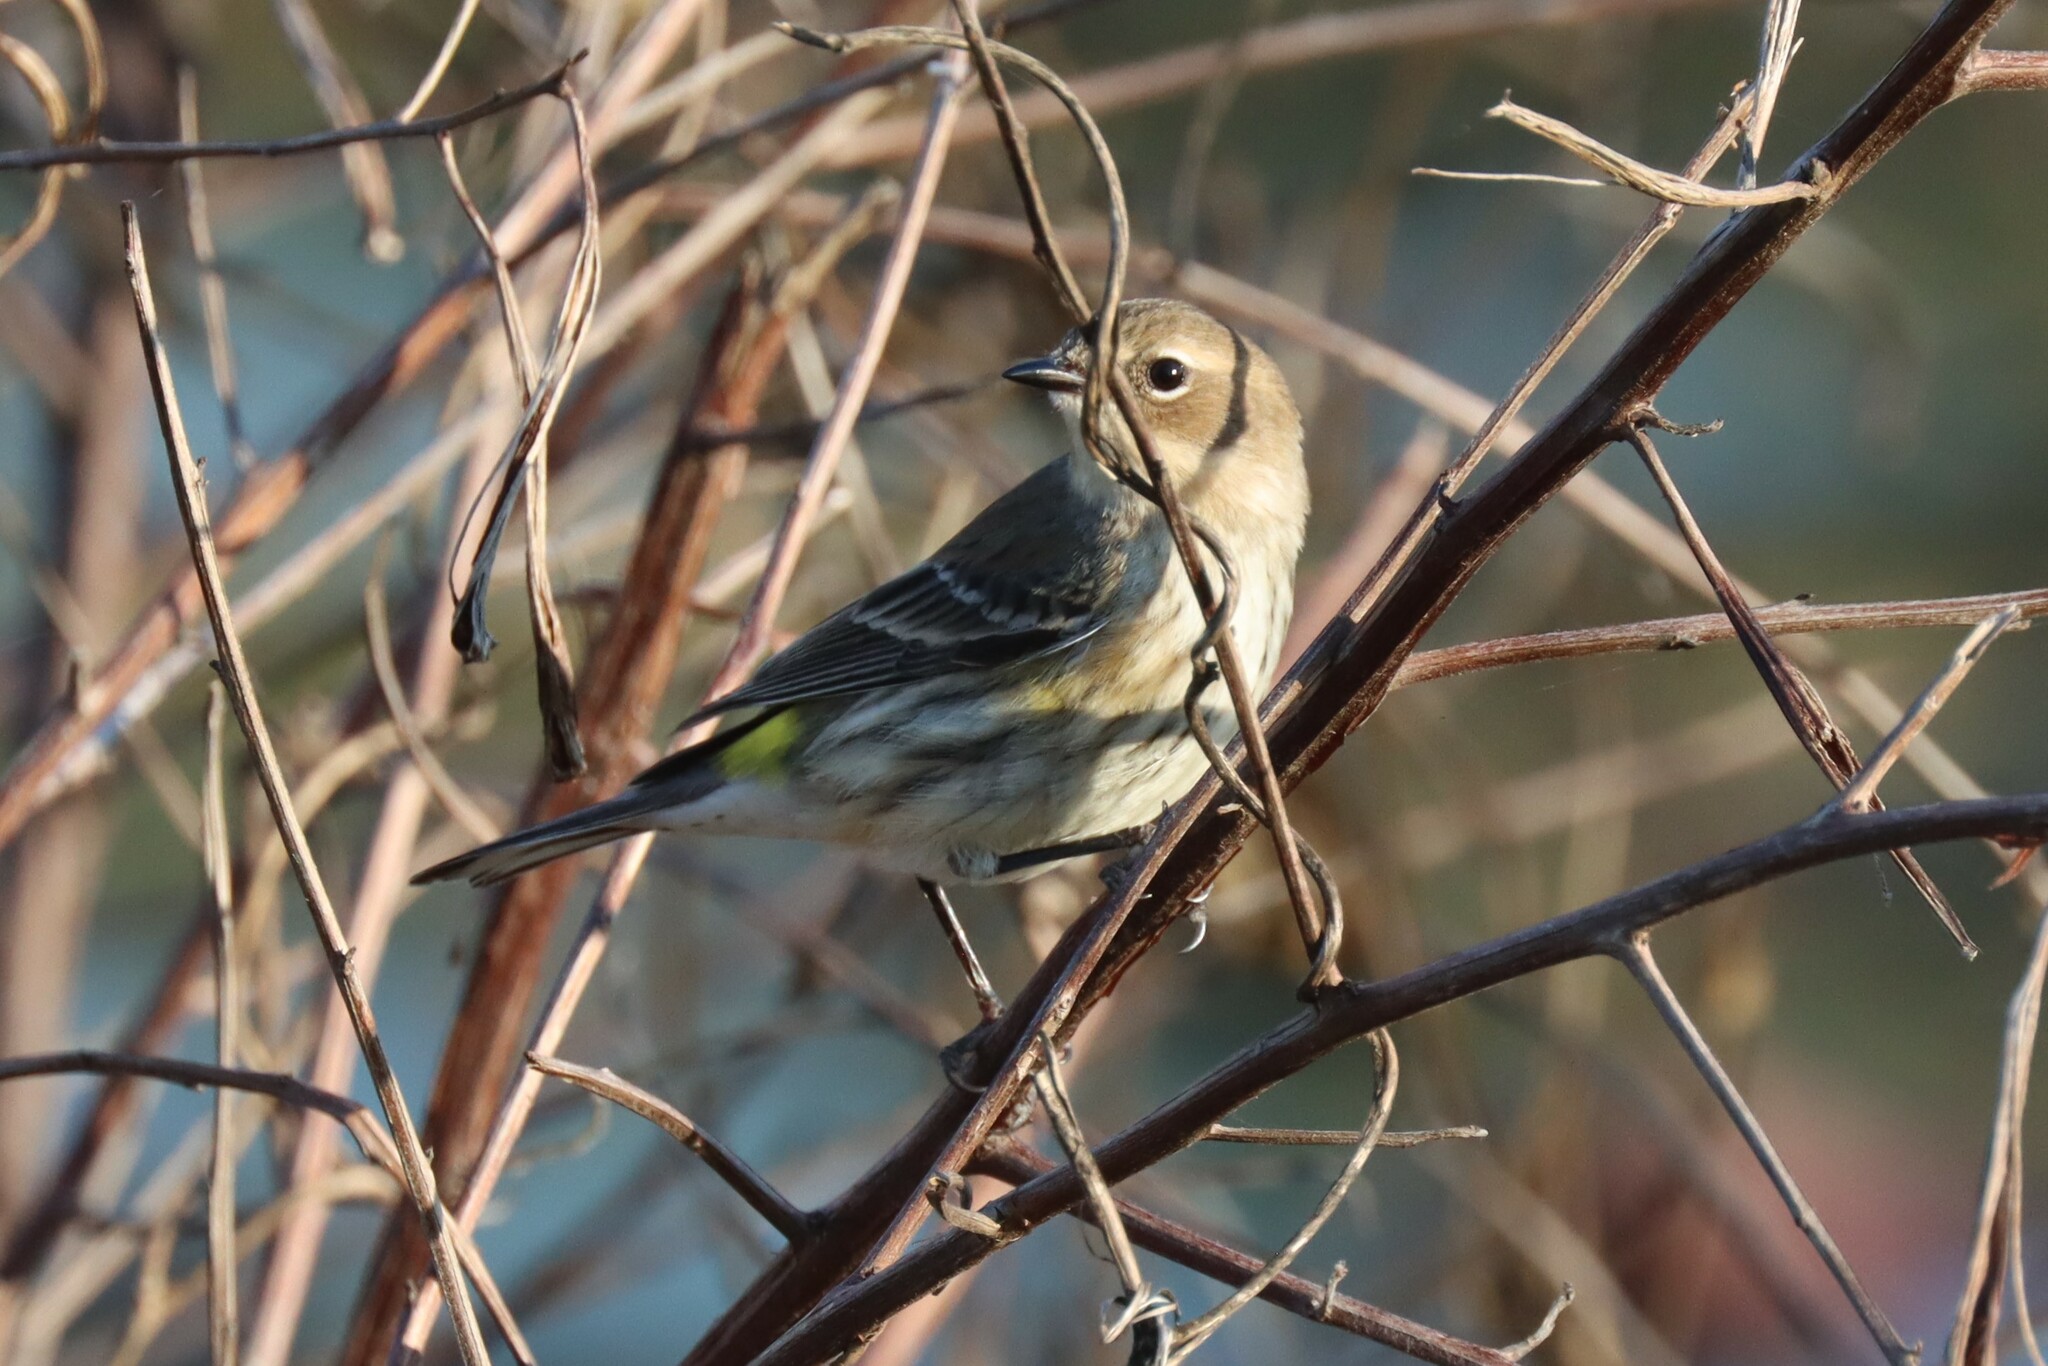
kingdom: Animalia
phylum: Chordata
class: Aves
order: Passeriformes
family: Parulidae
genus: Setophaga
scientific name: Setophaga coronata
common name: Myrtle warbler
